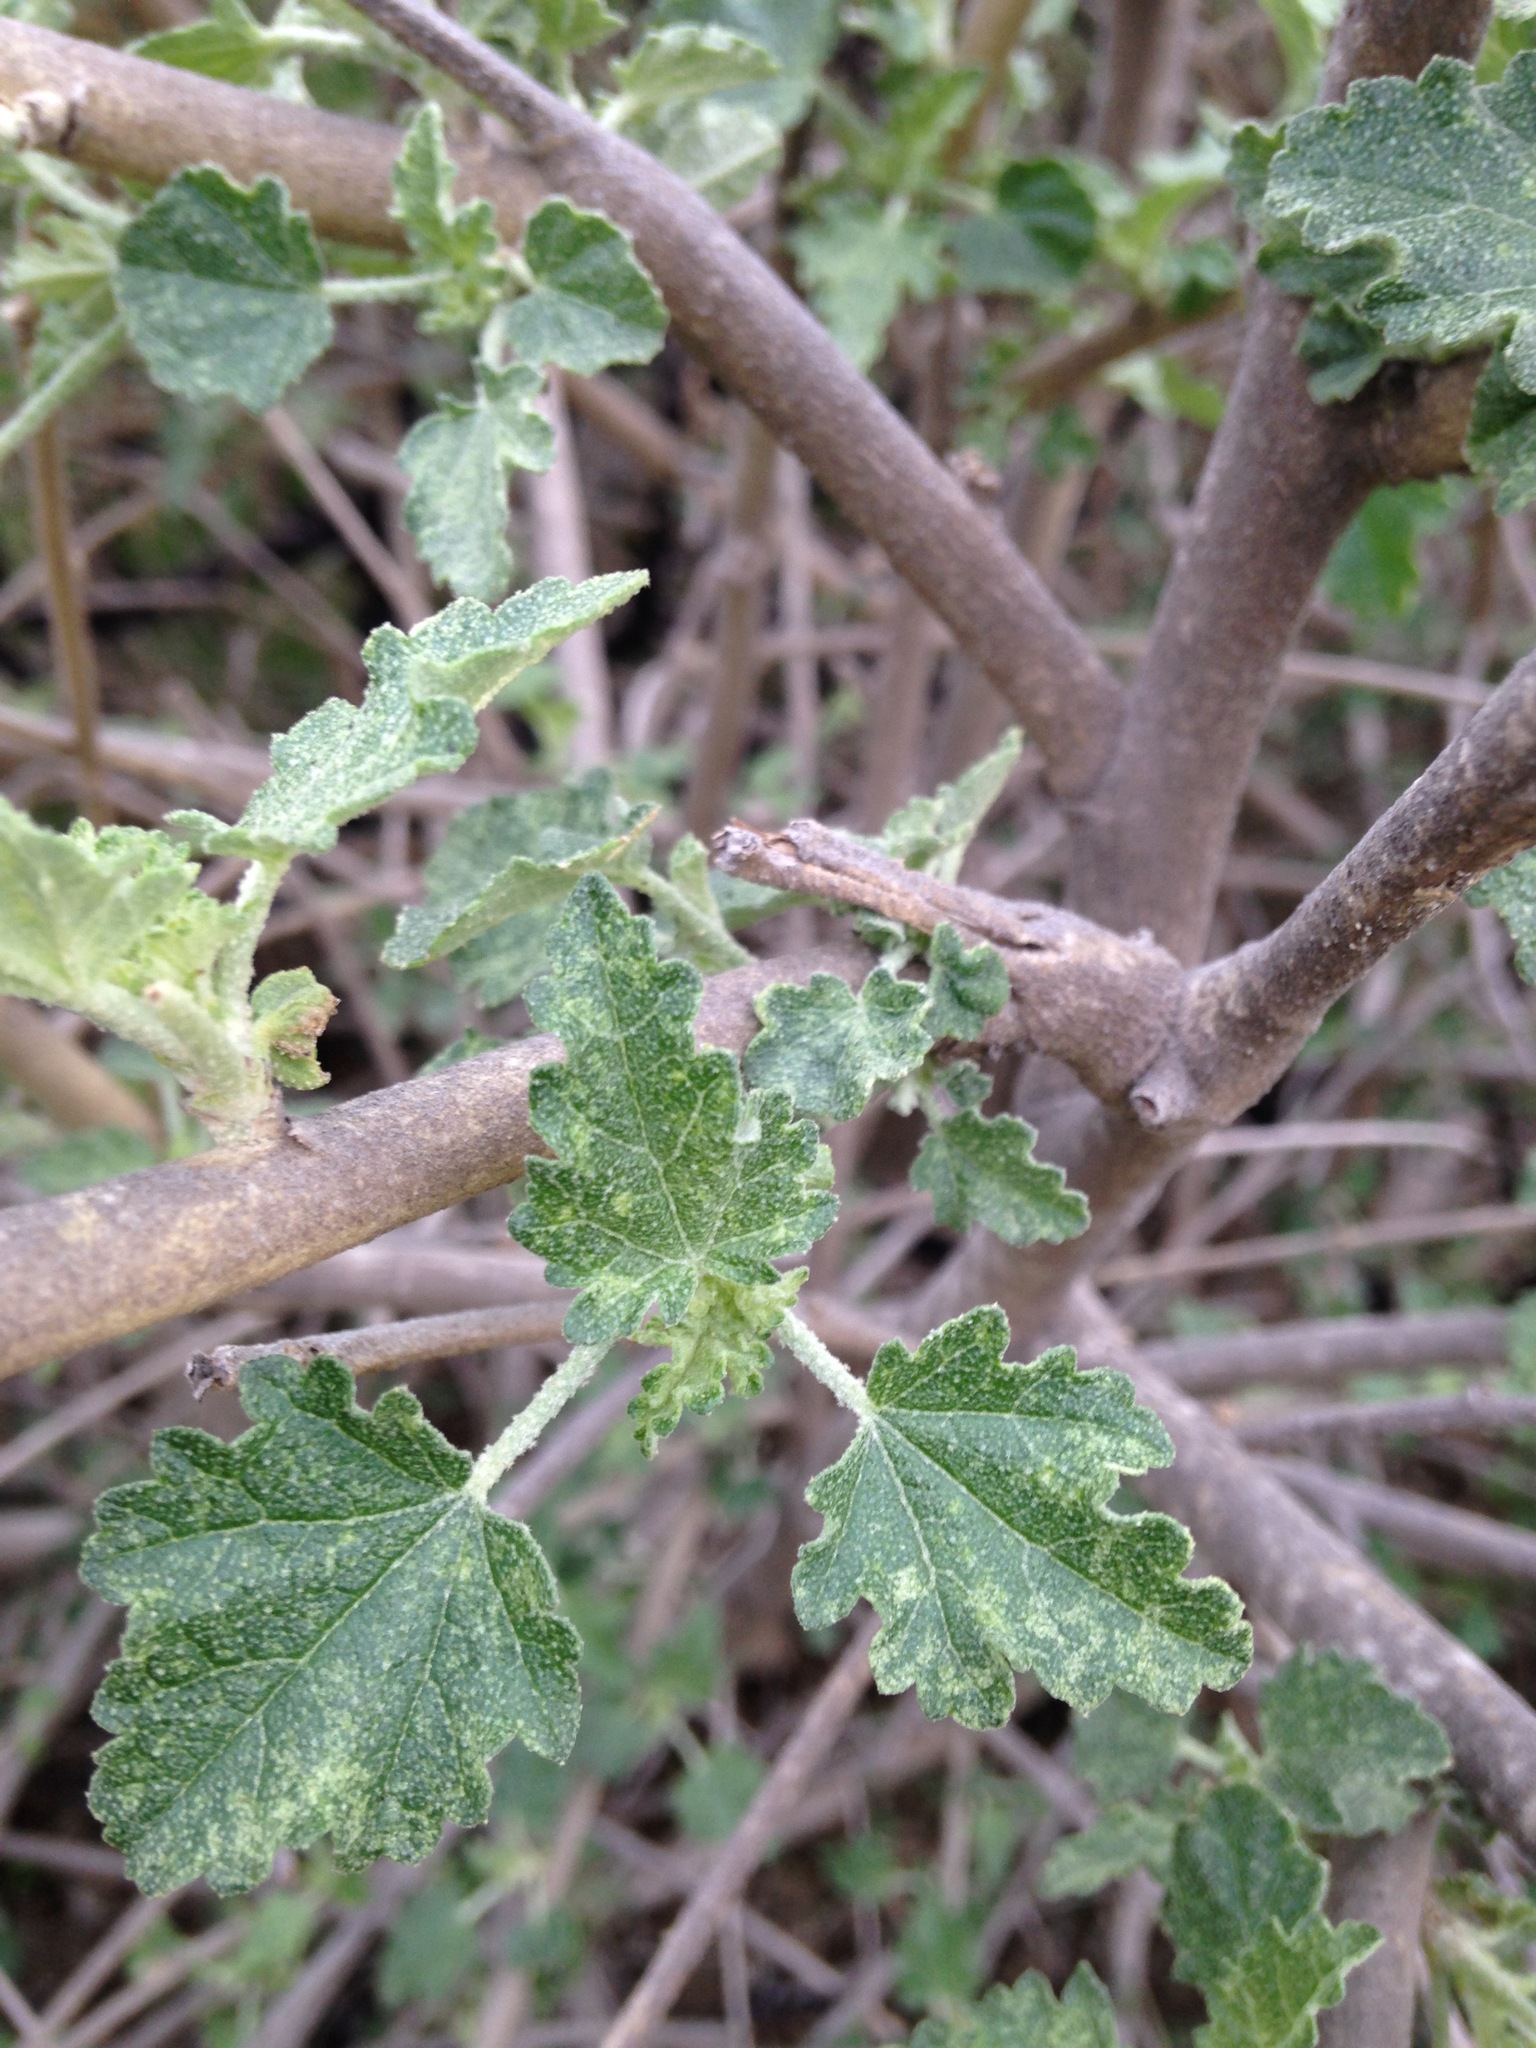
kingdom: Plantae
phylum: Tracheophyta
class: Magnoliopsida
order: Malvales
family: Malvaceae
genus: Malacothamnus
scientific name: Malacothamnus fasciculatus
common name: Sant cruz island bush-mallow
